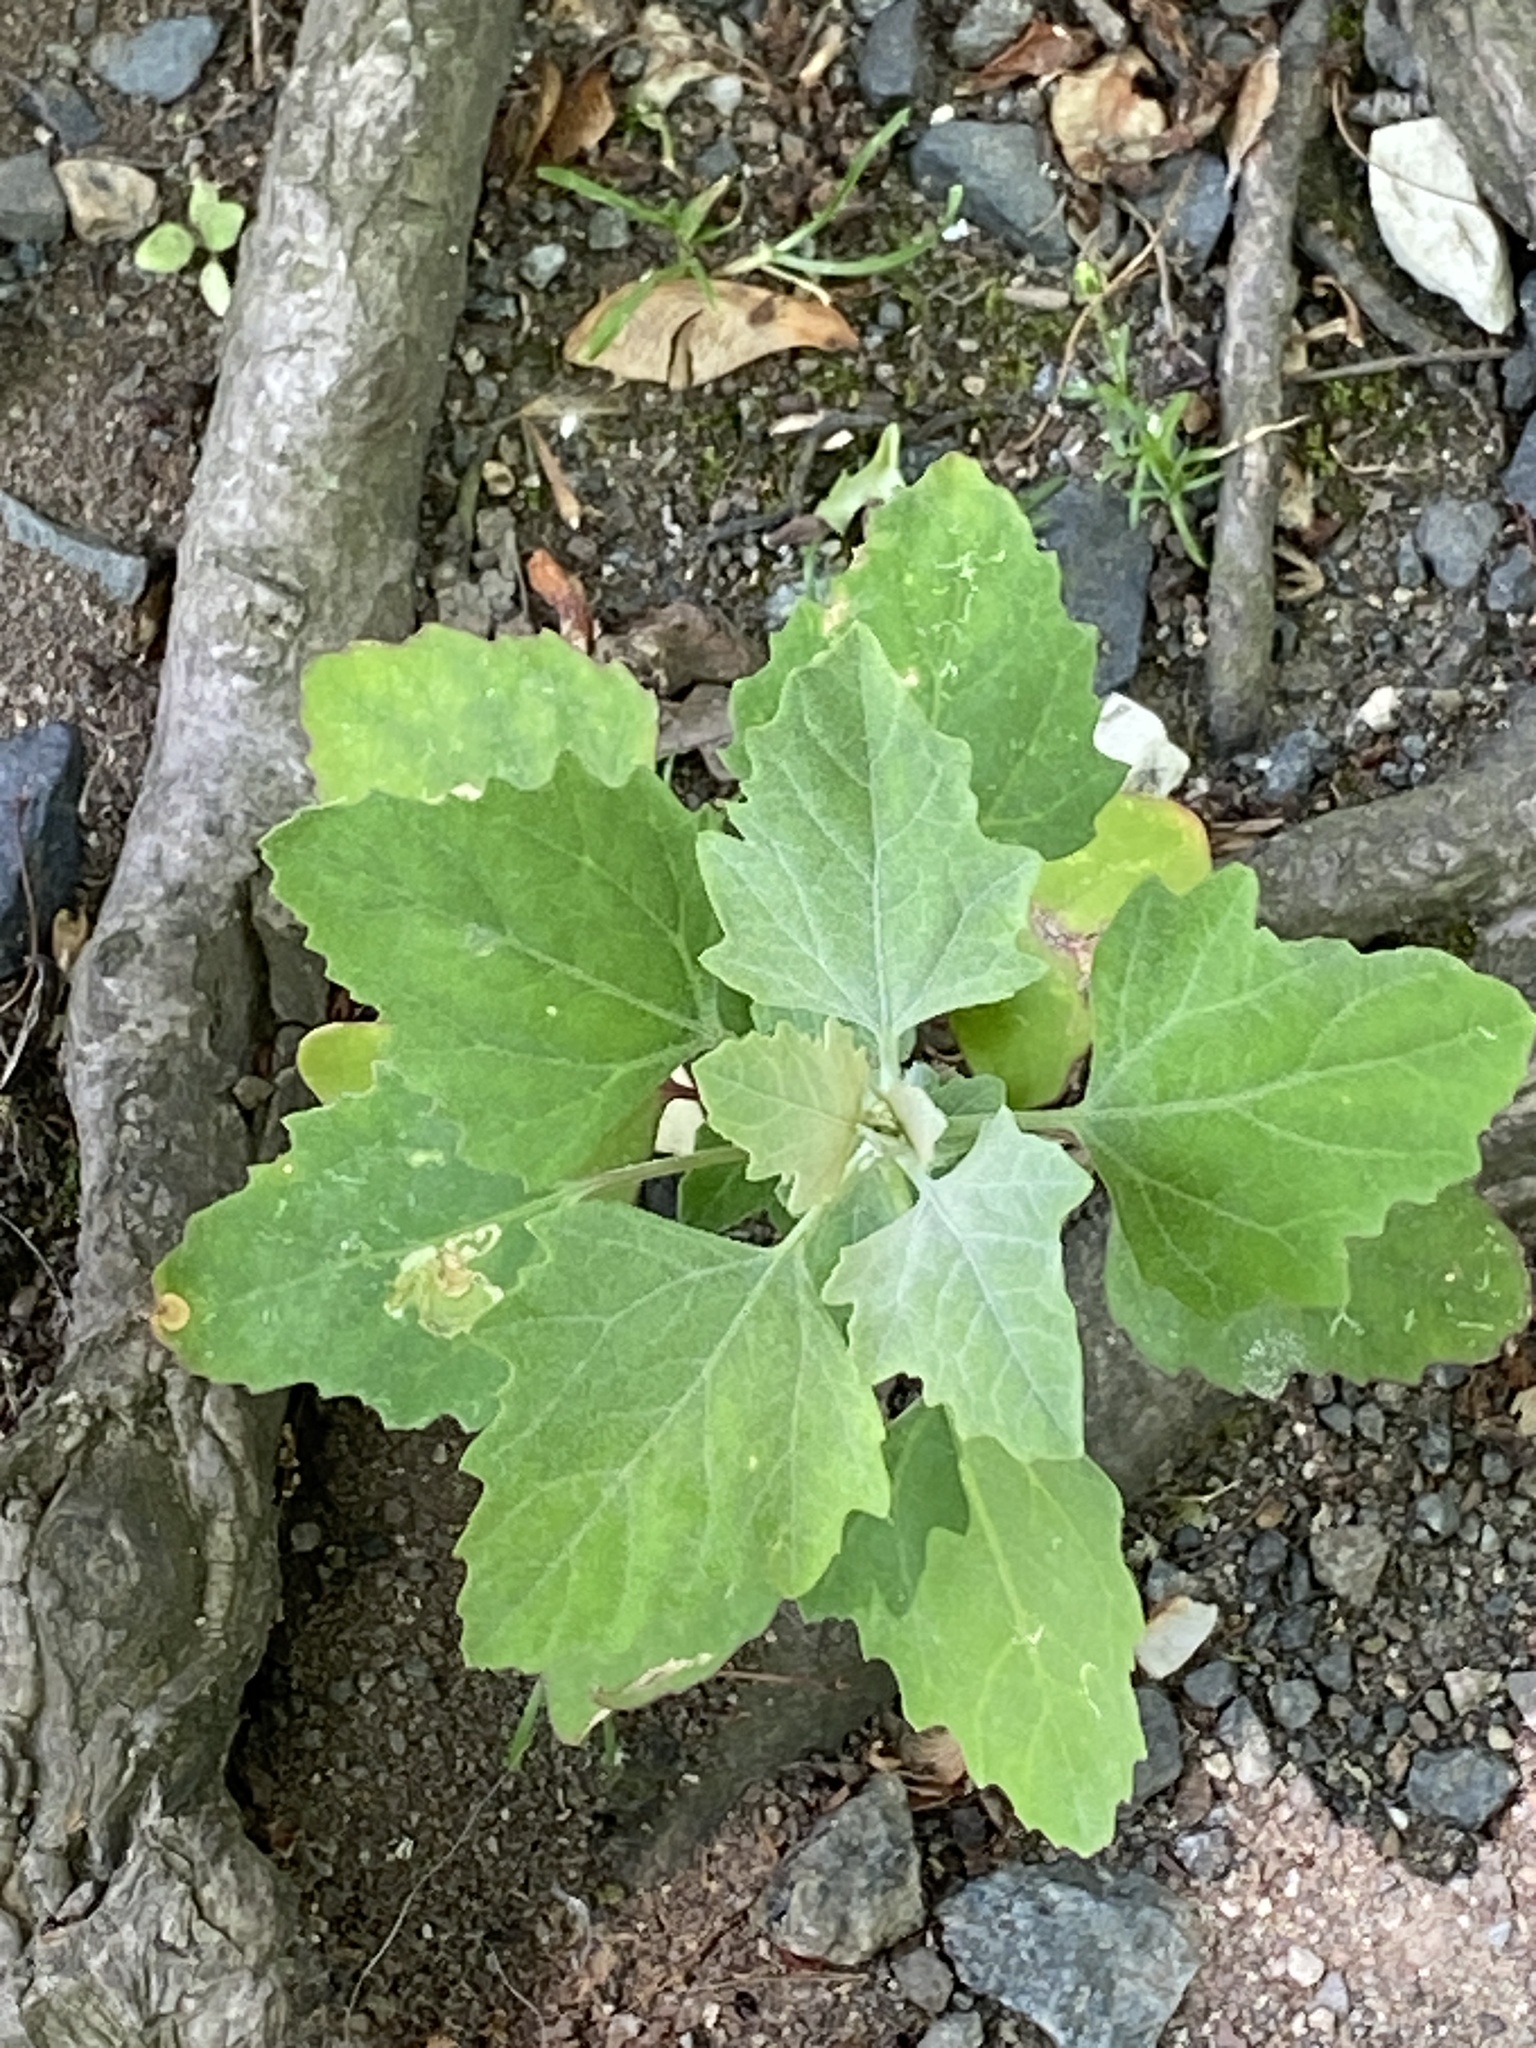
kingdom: Plantae
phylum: Tracheophyta
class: Magnoliopsida
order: Caryophyllales
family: Amaranthaceae
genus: Chenopodium
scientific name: Chenopodium album
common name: Fat-hen
